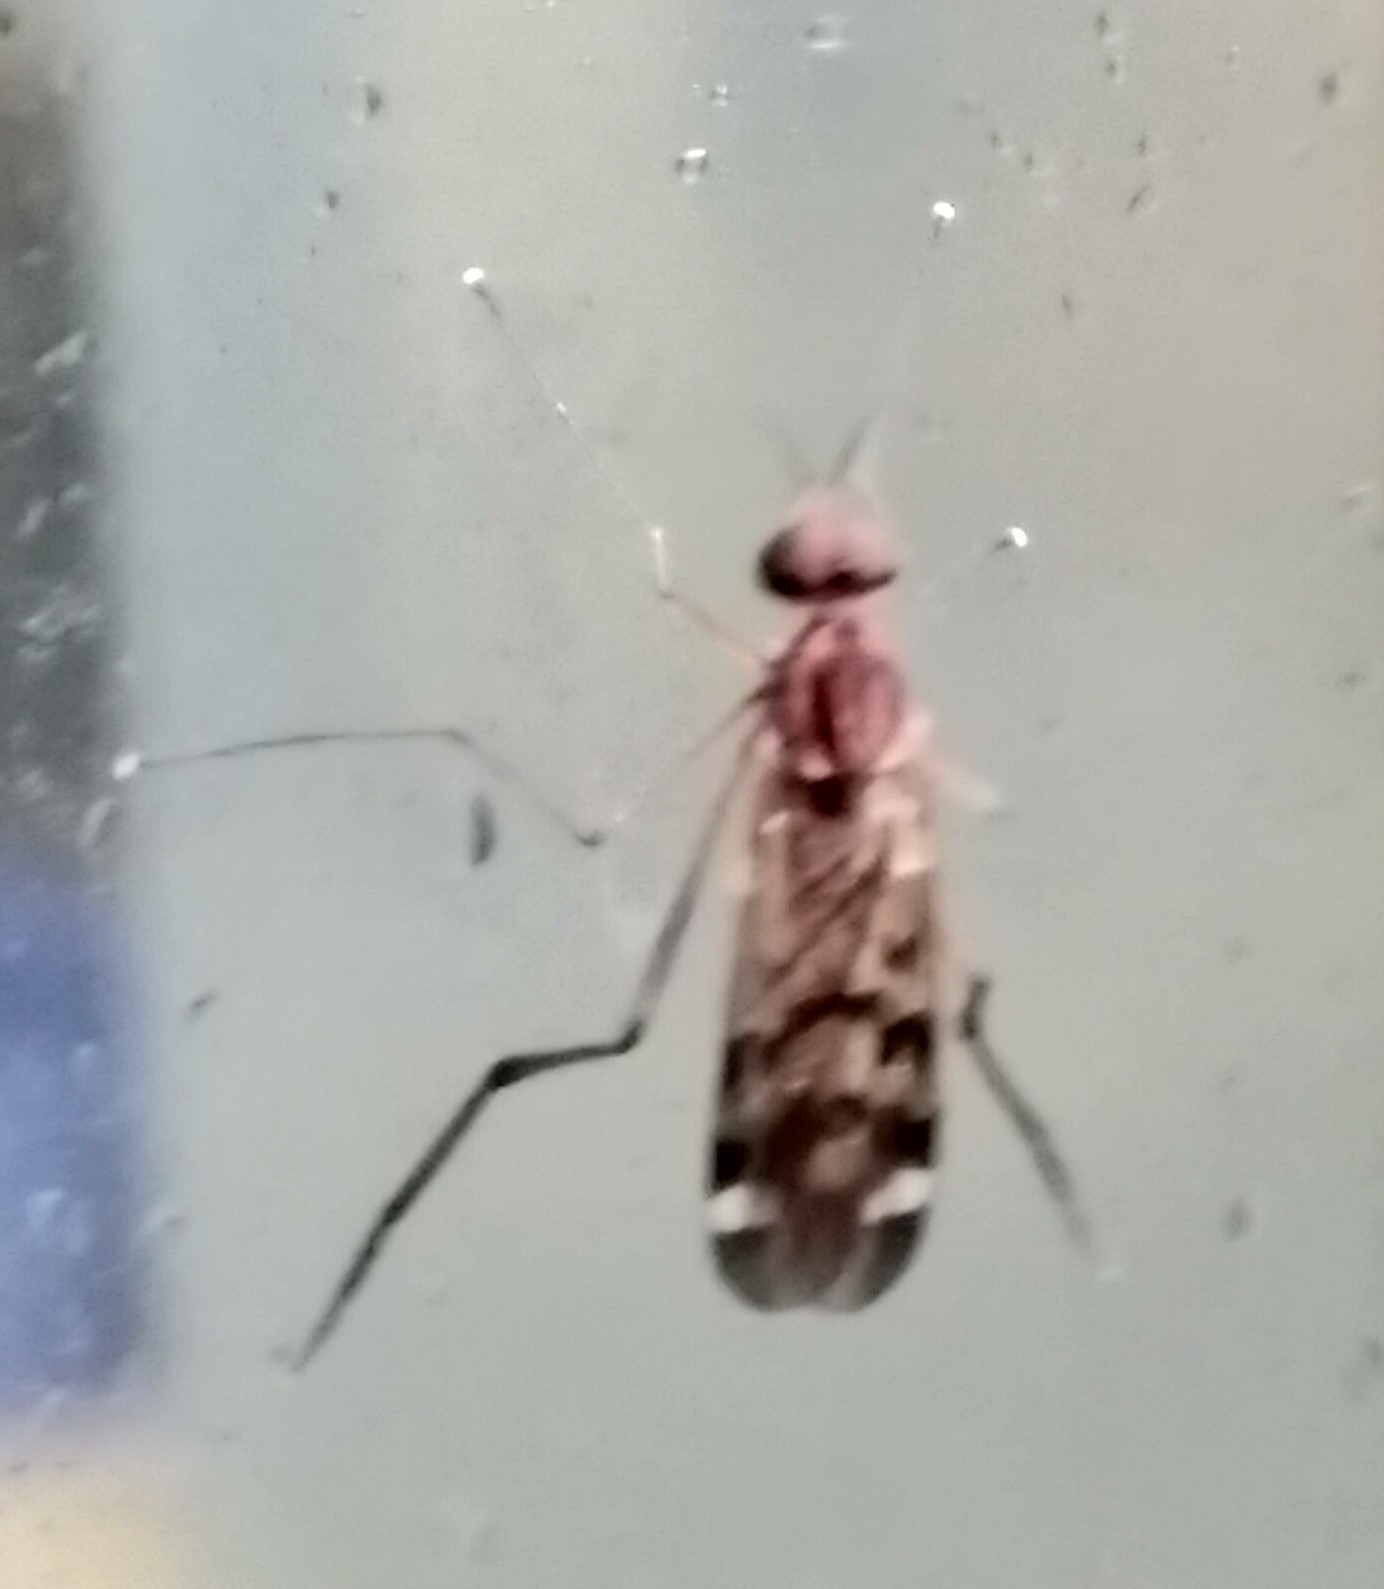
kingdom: Animalia
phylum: Arthropoda
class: Insecta
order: Diptera
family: Anisopodidae
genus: Sylvicola
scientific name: Sylvicola notatus
